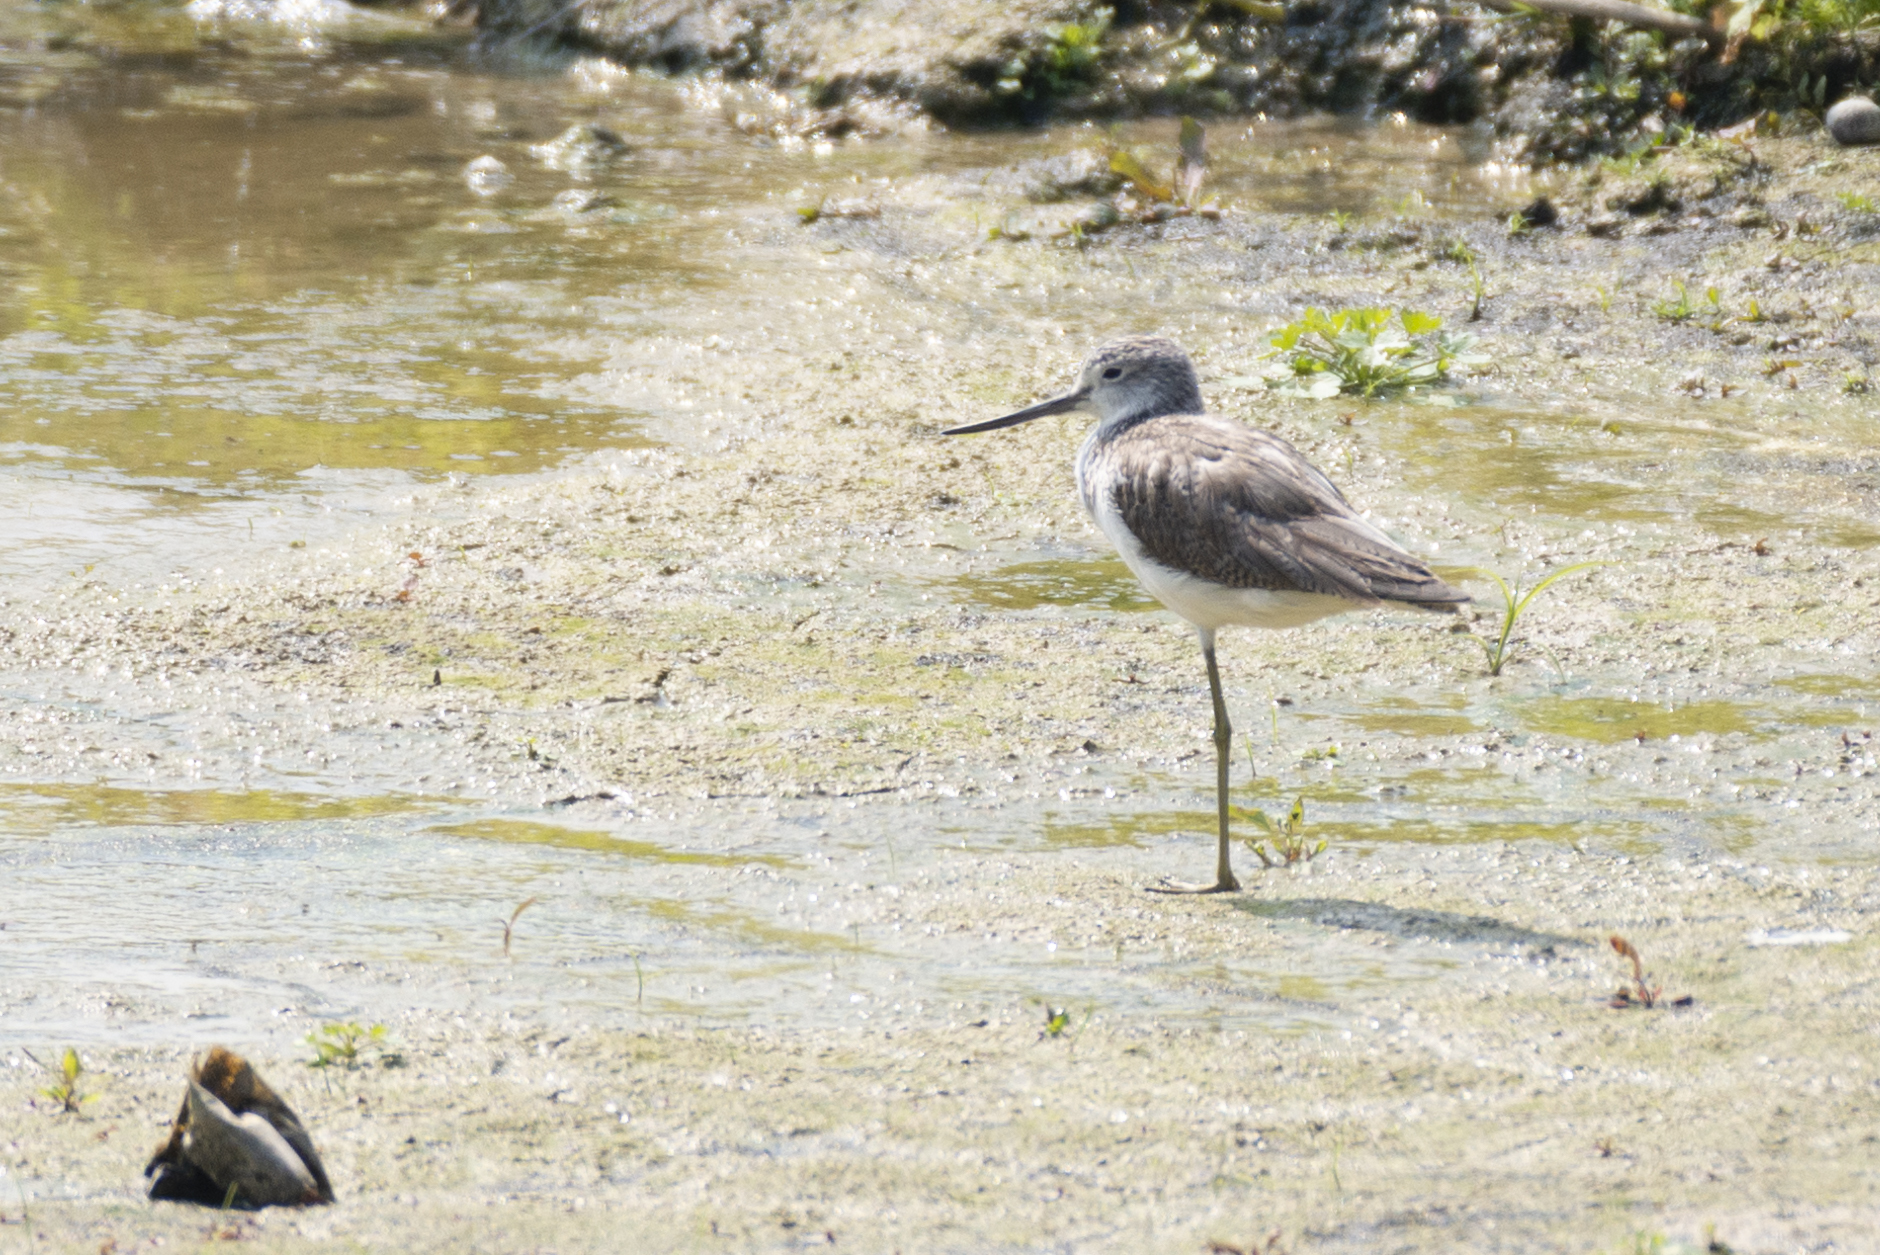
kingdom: Animalia
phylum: Chordata
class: Aves
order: Charadriiformes
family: Scolopacidae
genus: Tringa
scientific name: Tringa nebularia
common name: Common greenshank
